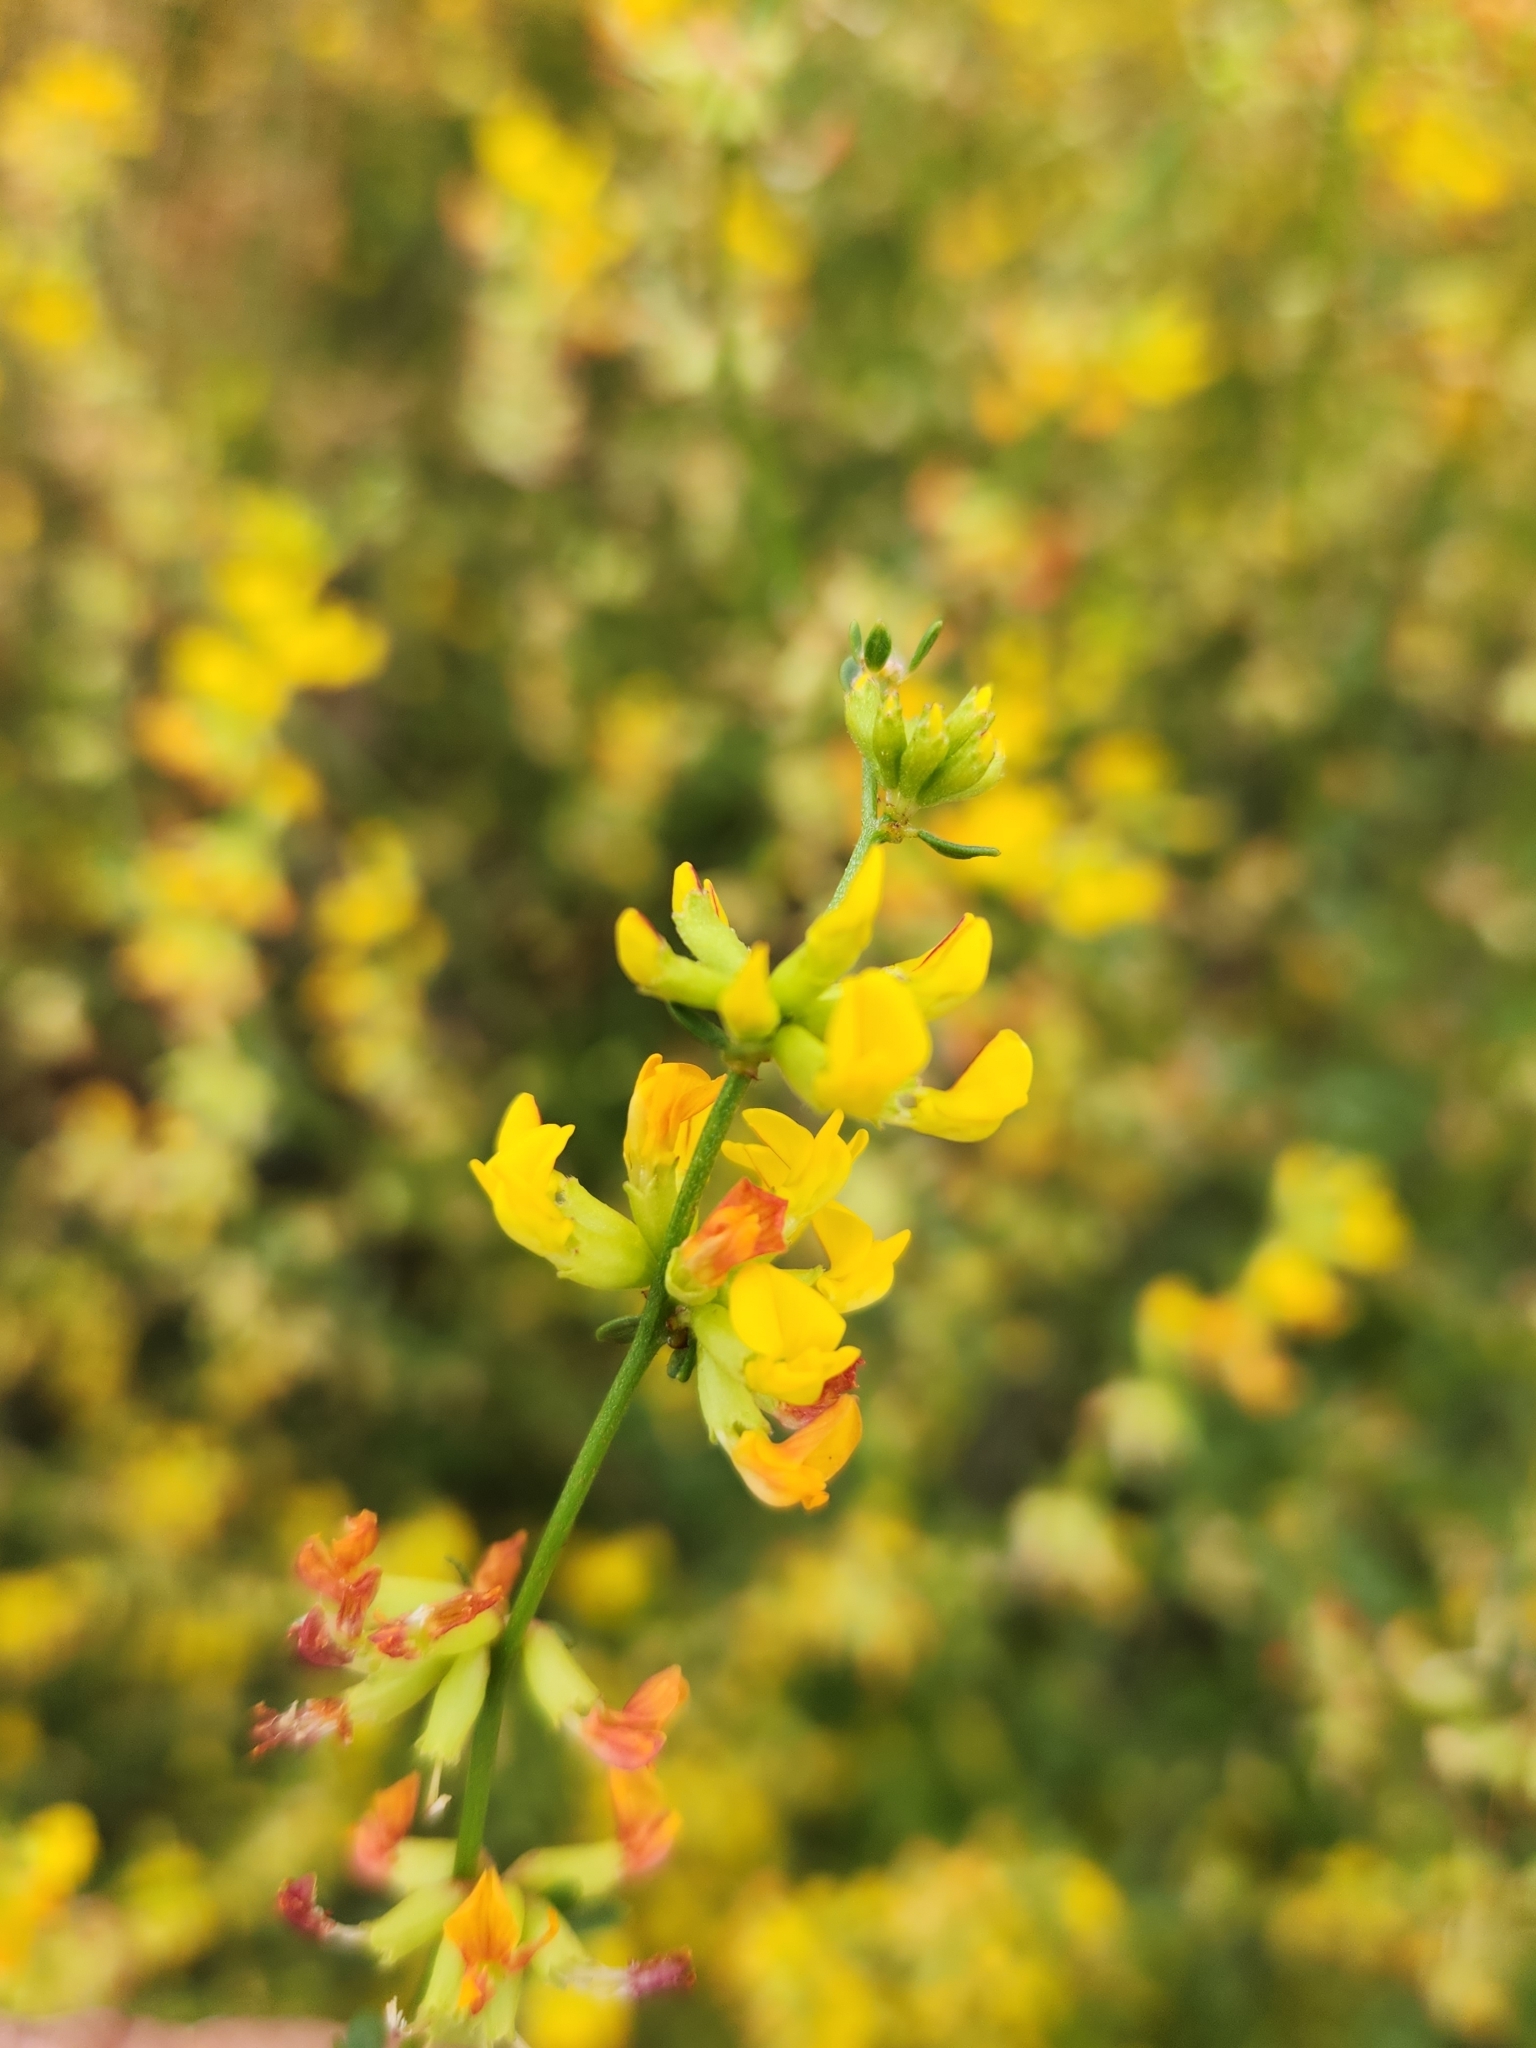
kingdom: Plantae
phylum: Tracheophyta
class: Magnoliopsida
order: Fabales
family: Fabaceae
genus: Acmispon
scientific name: Acmispon glaber
